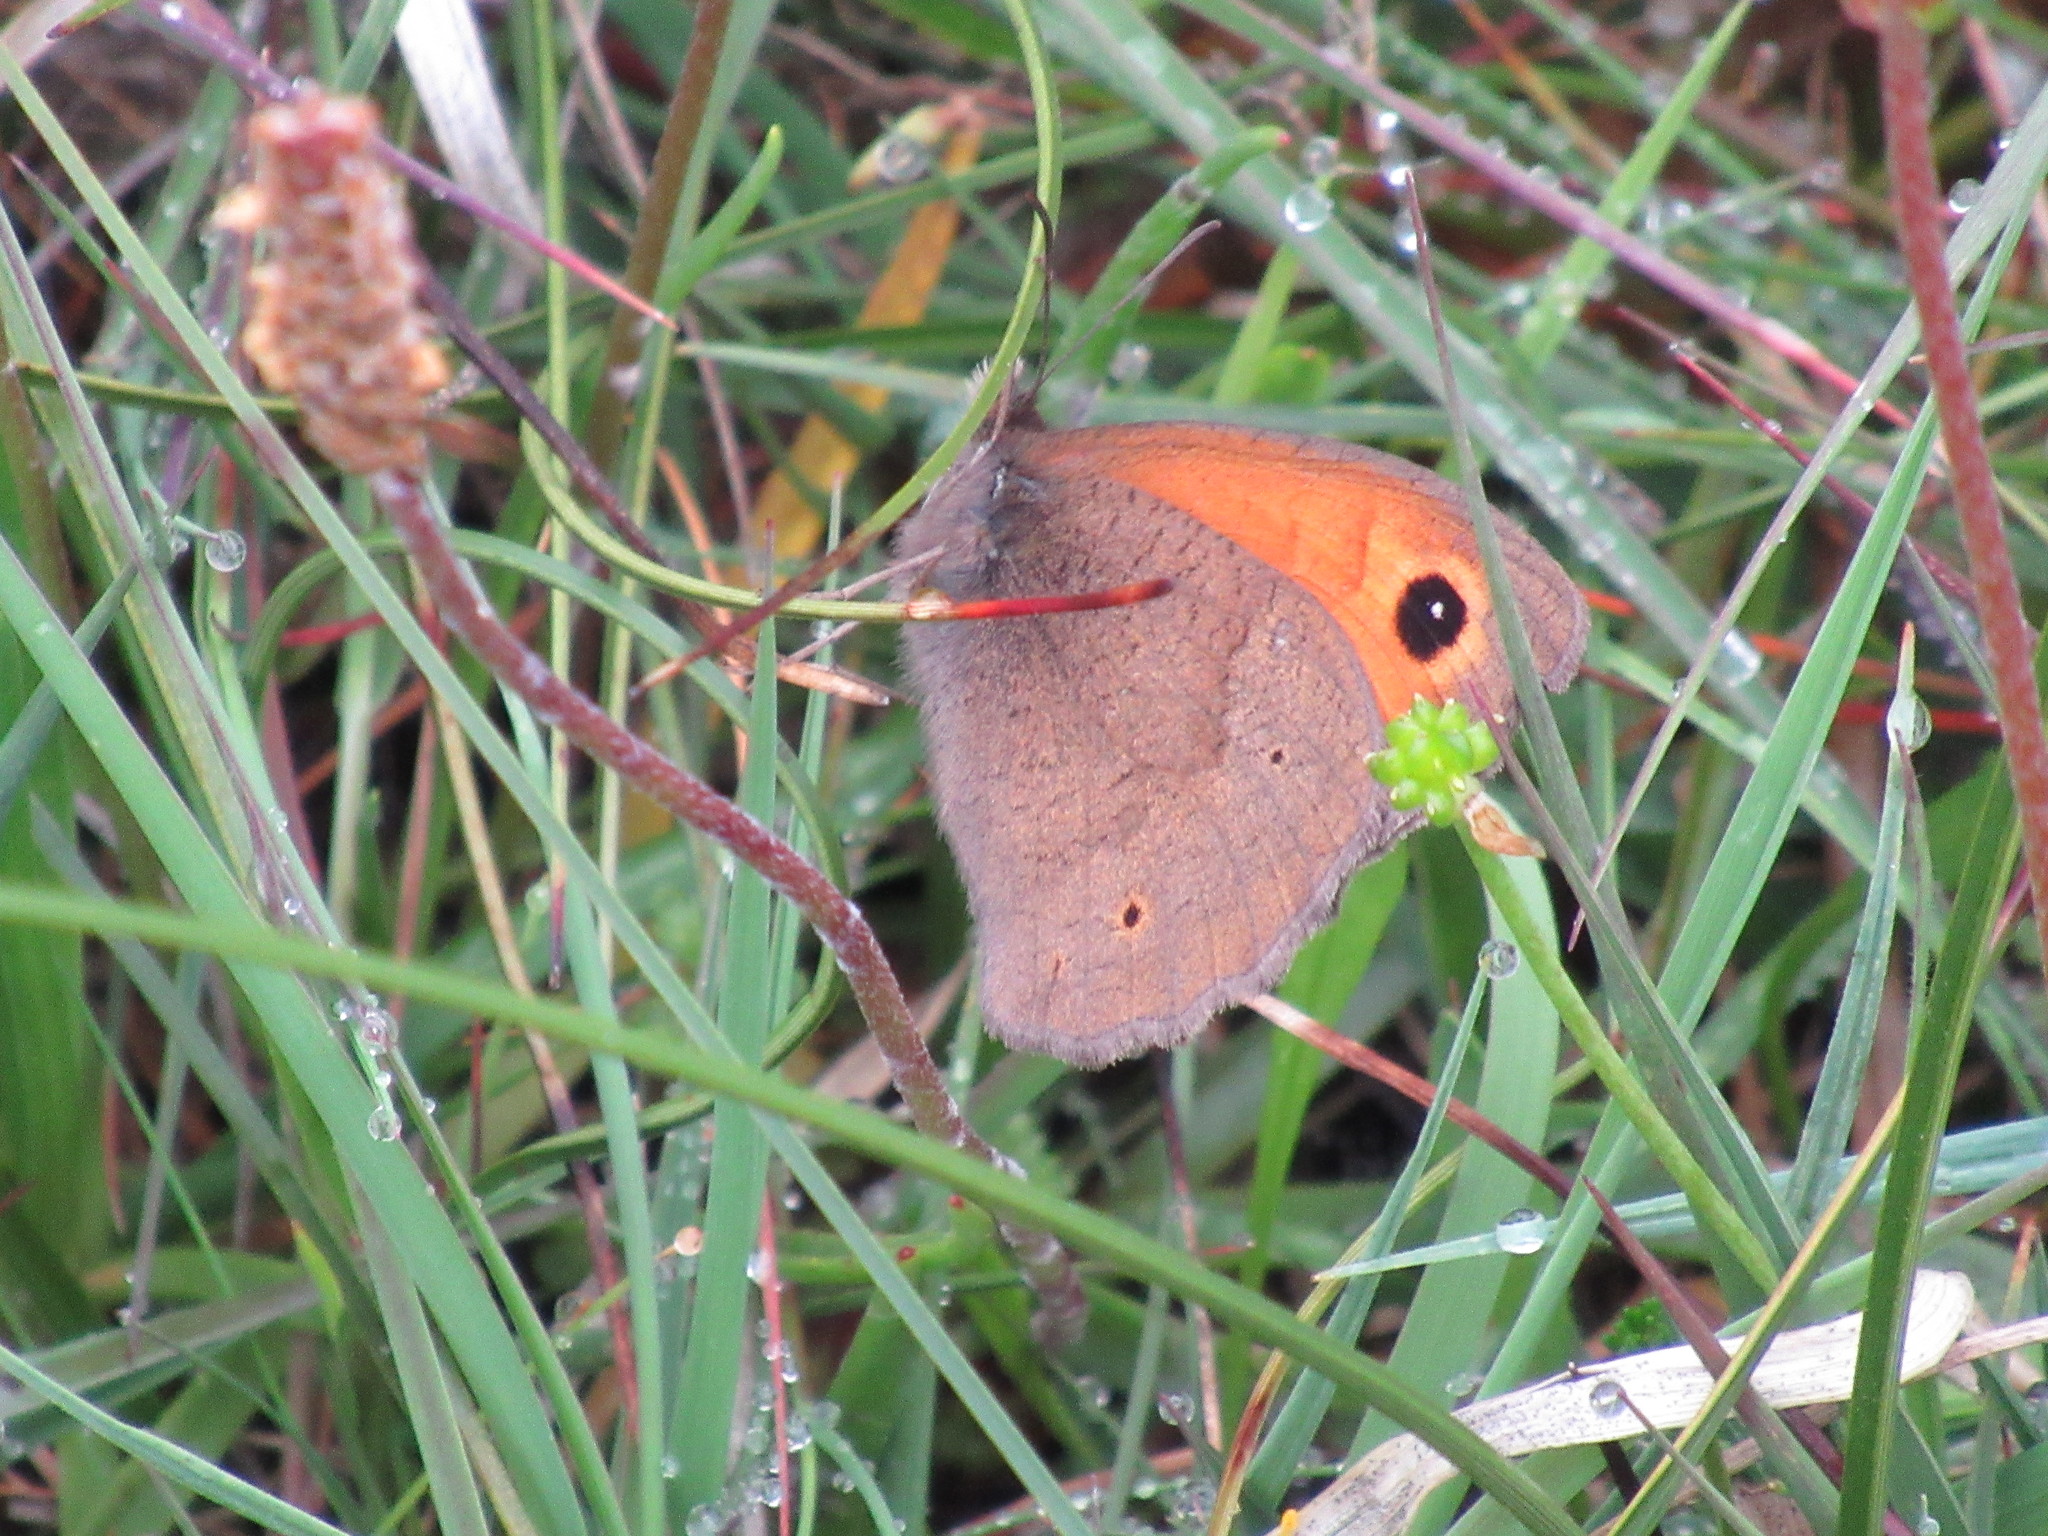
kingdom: Animalia
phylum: Arthropoda
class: Insecta
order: Lepidoptera
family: Nymphalidae
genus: Maniola
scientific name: Maniola jurtina
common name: Meadow brown
